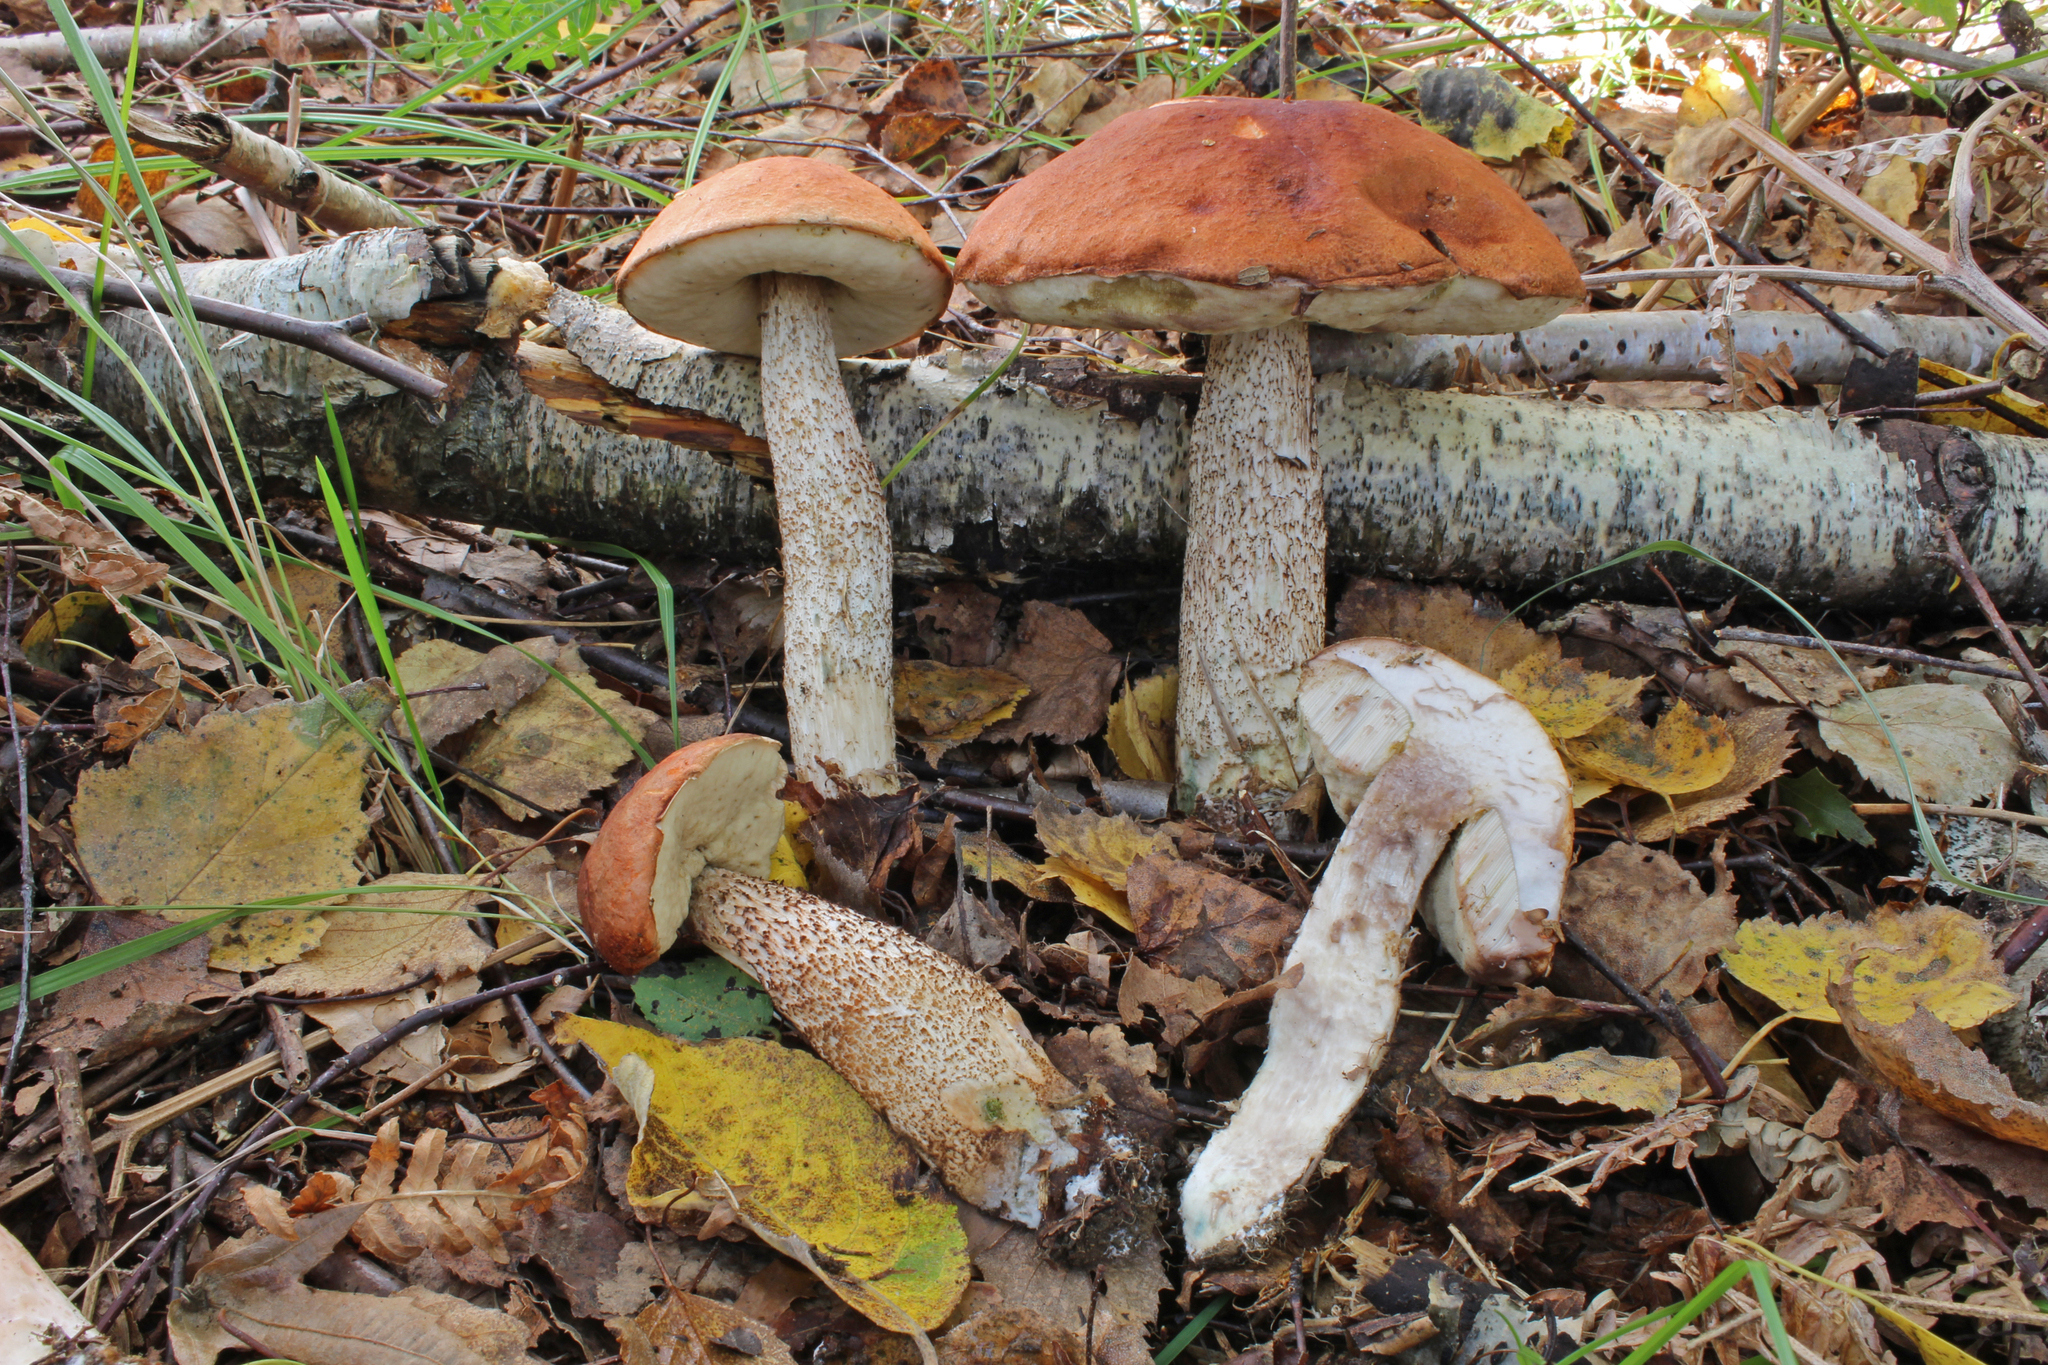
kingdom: Fungi
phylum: Basidiomycota
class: Agaricomycetes
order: Boletales
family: Boletaceae
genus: Leccinum
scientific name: Leccinum aurantiacum
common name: Orange bolete
